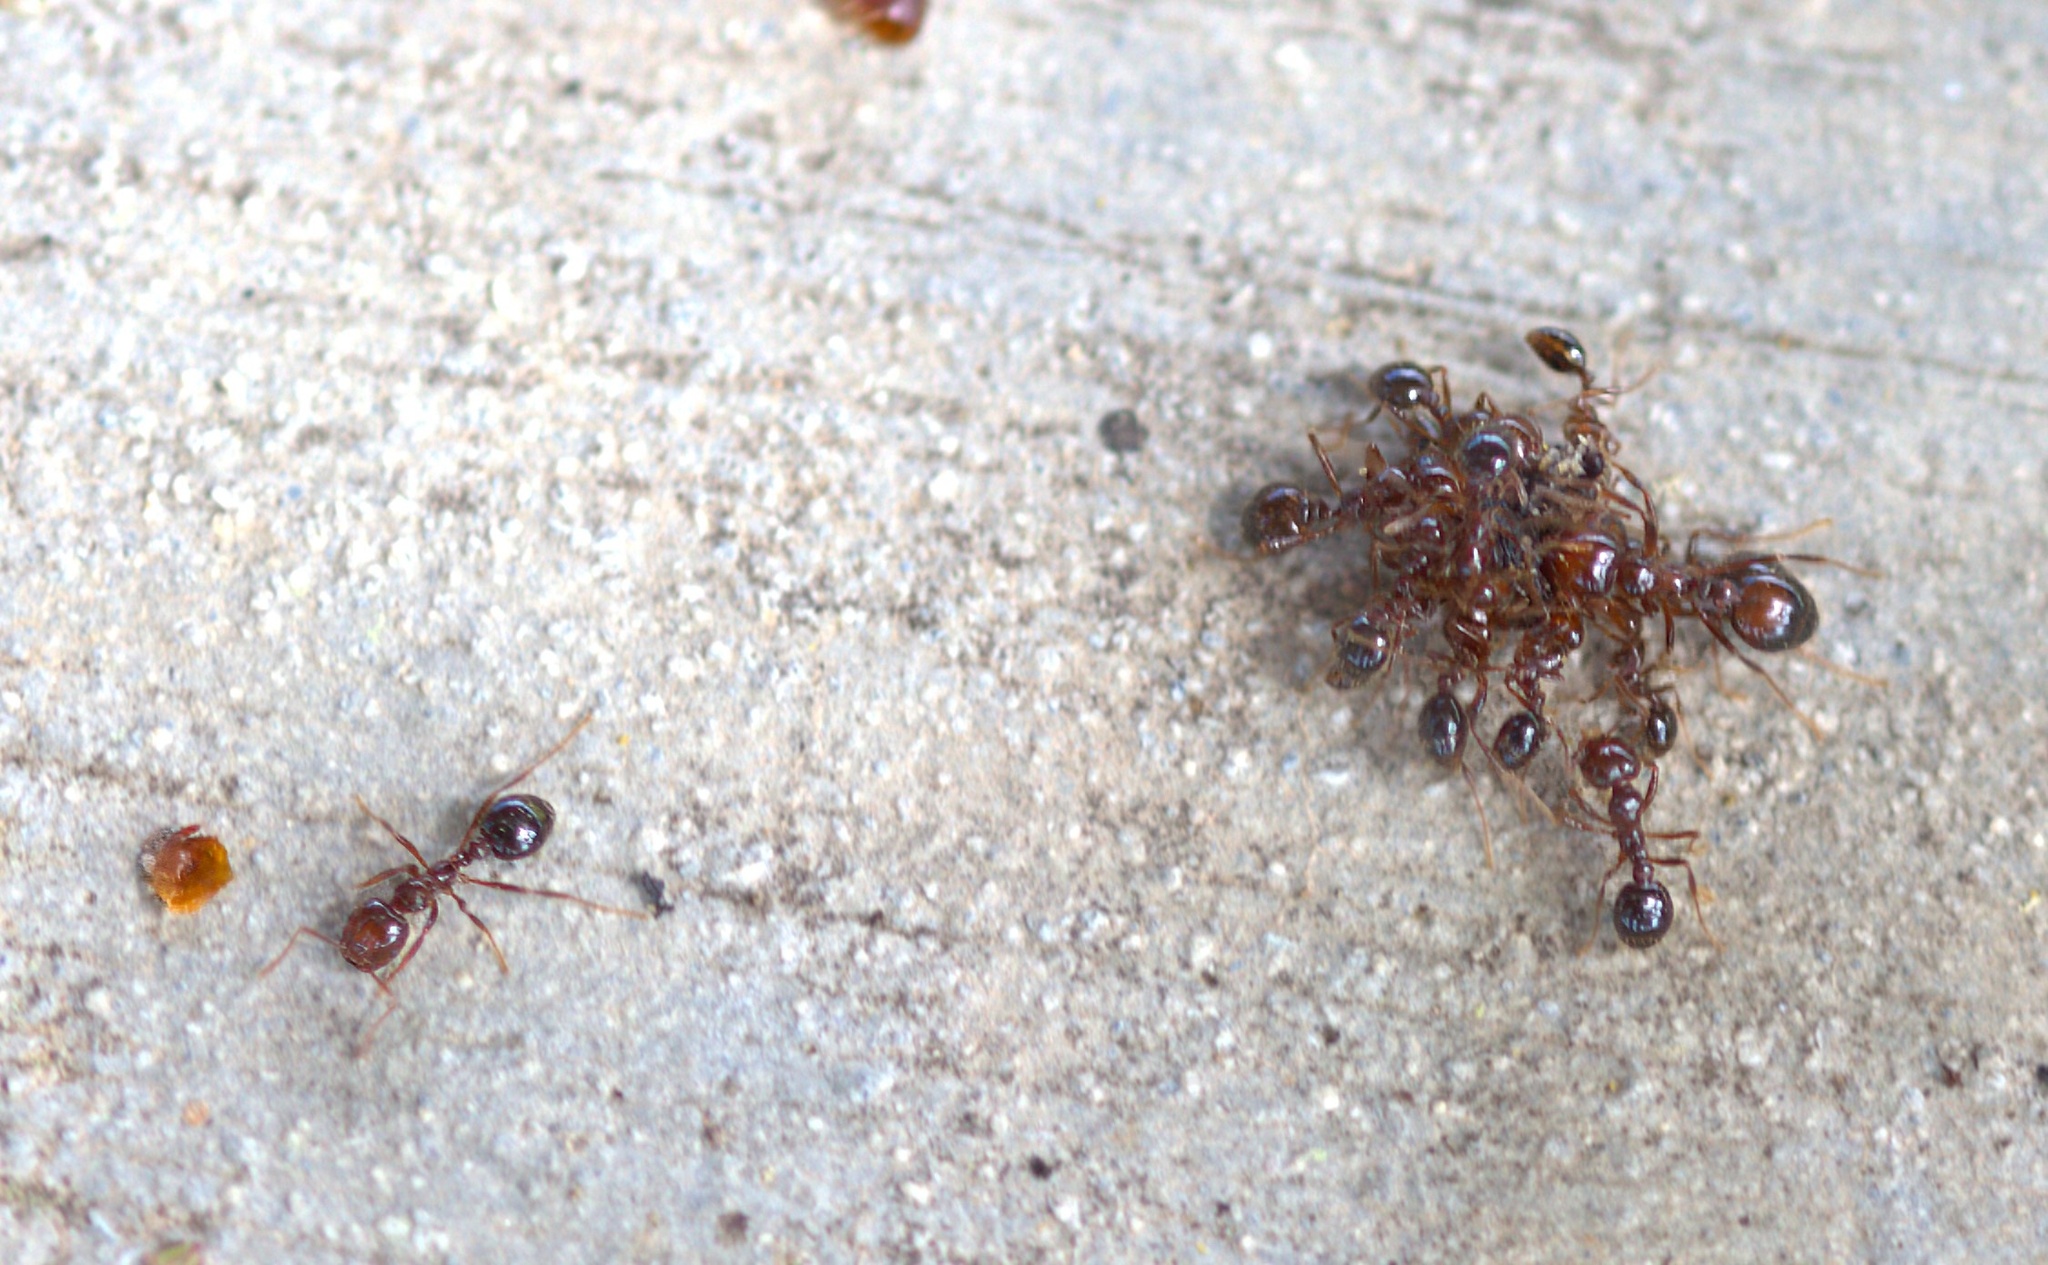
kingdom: Animalia
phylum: Arthropoda
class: Insecta
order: Hymenoptera
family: Formicidae
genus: Solenopsis
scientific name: Solenopsis invicta
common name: Red imported fire ant
